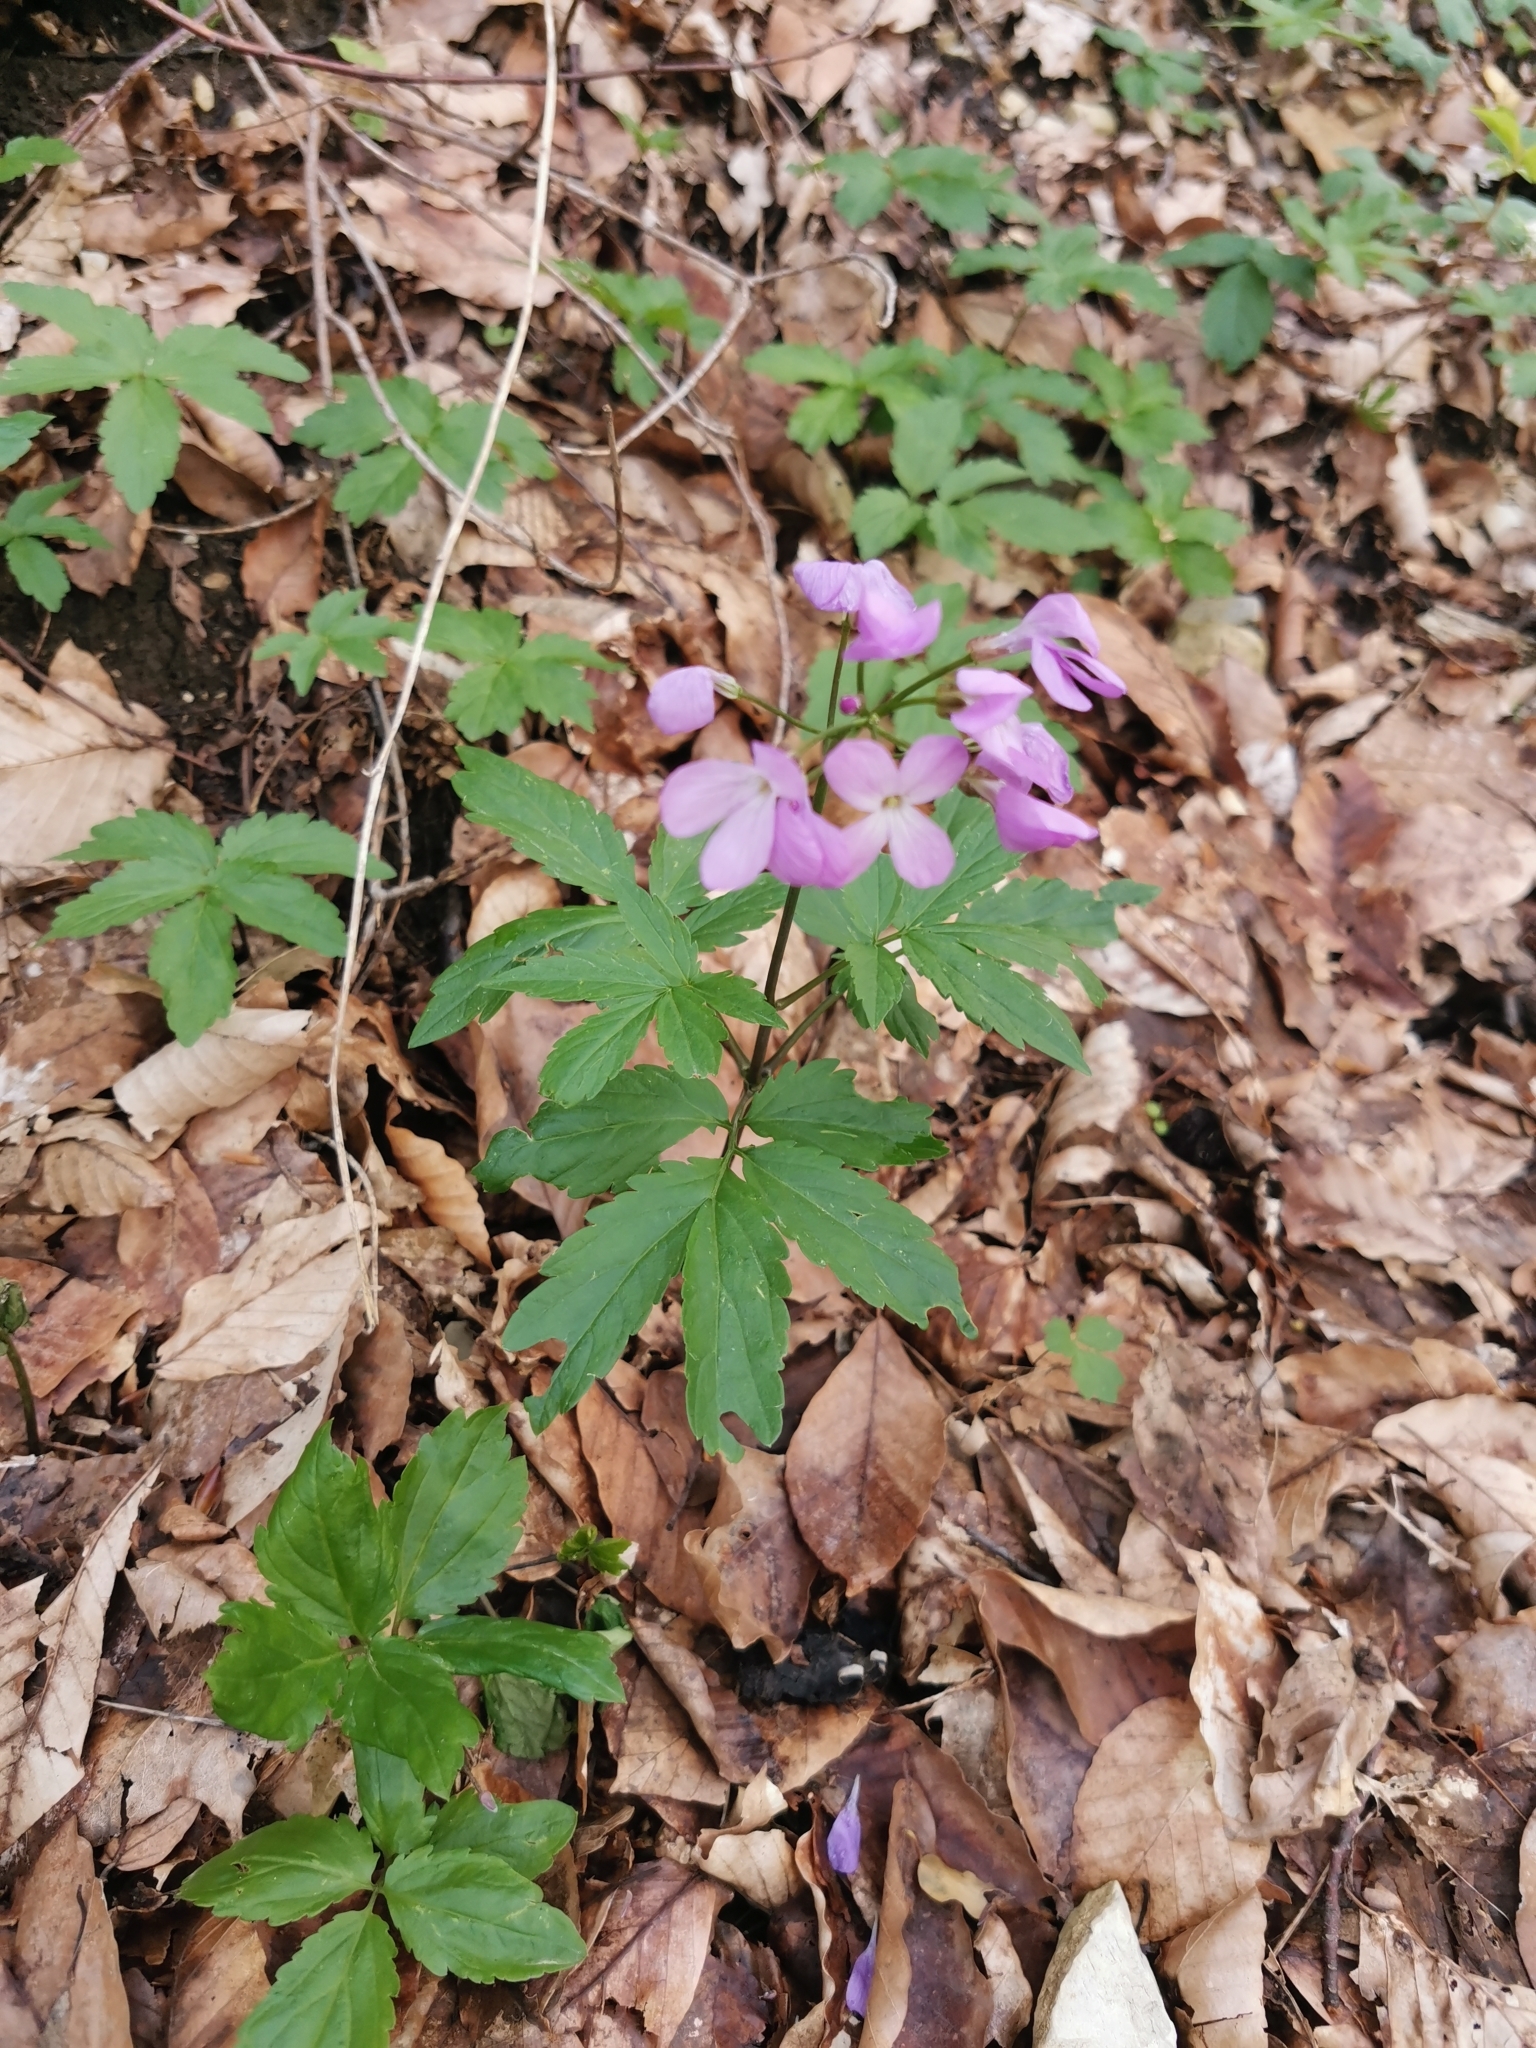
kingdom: Plantae
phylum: Tracheophyta
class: Magnoliopsida
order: Brassicales
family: Brassicaceae
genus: Cardamine
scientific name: Cardamine quinquefolia
